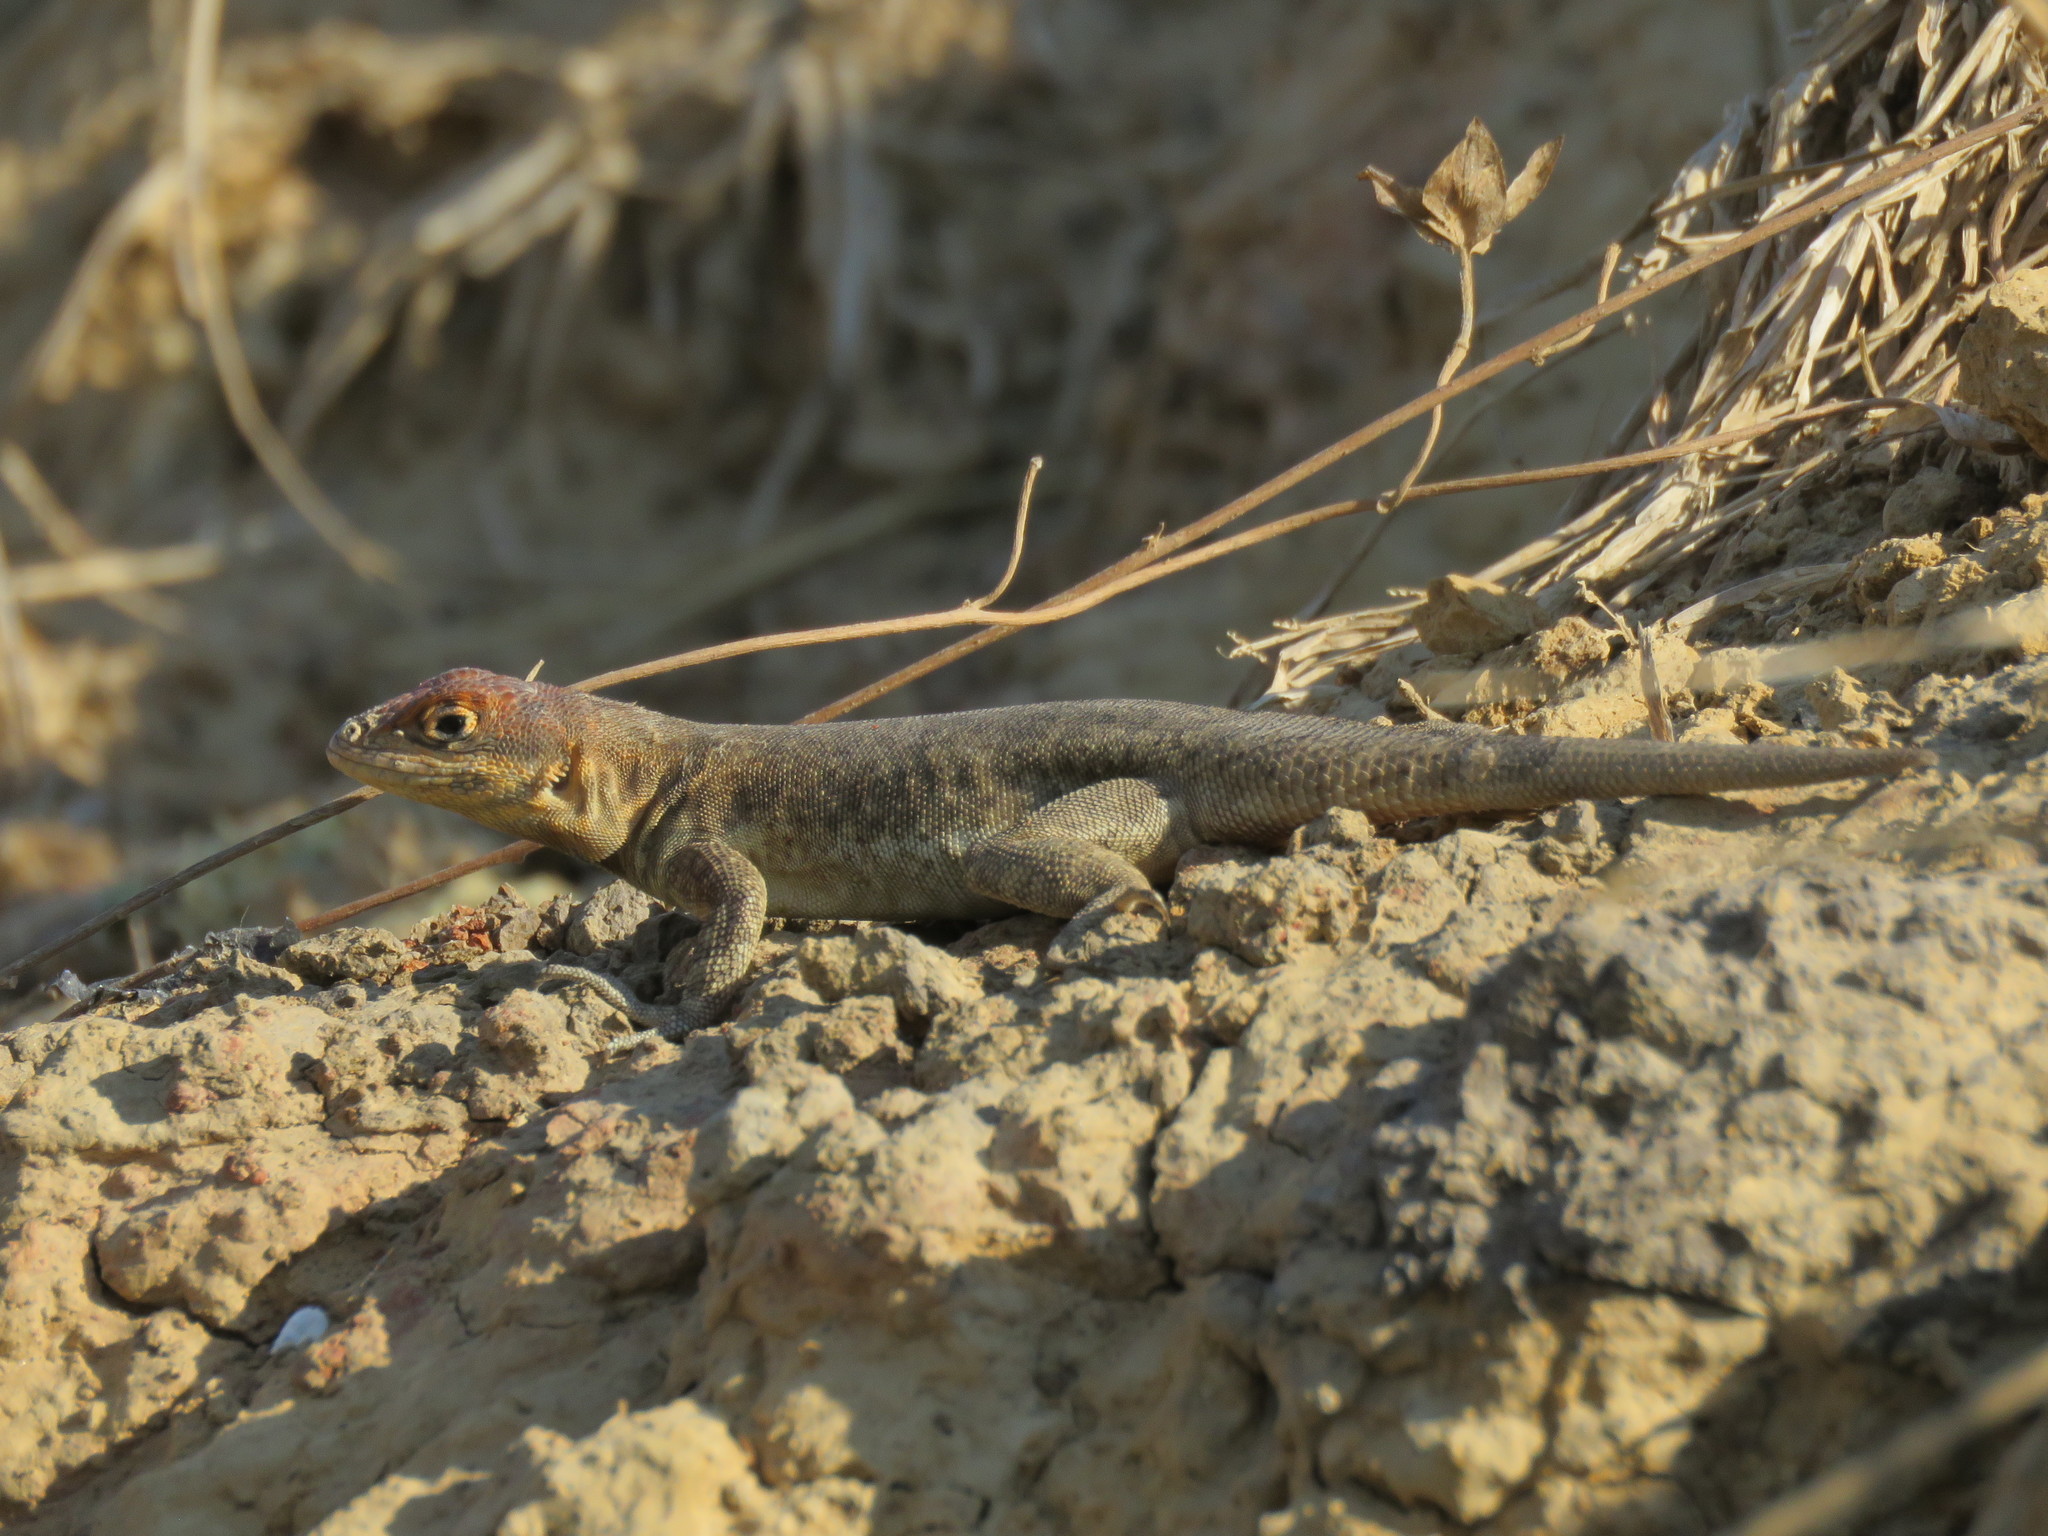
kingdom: Animalia
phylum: Chordata
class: Squamata
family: Tropiduridae
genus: Tropidurus
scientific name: Tropidurus etheridgei
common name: Etheridge's lava lizard
